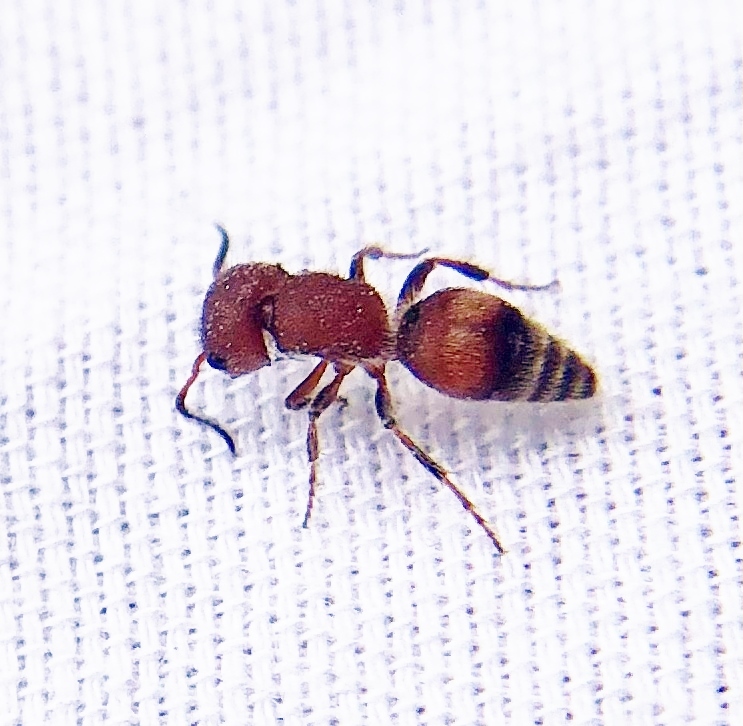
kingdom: Animalia
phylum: Arthropoda
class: Insecta
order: Hymenoptera
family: Mutillidae
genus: Pseudomethoca
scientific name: Pseudomethoca
